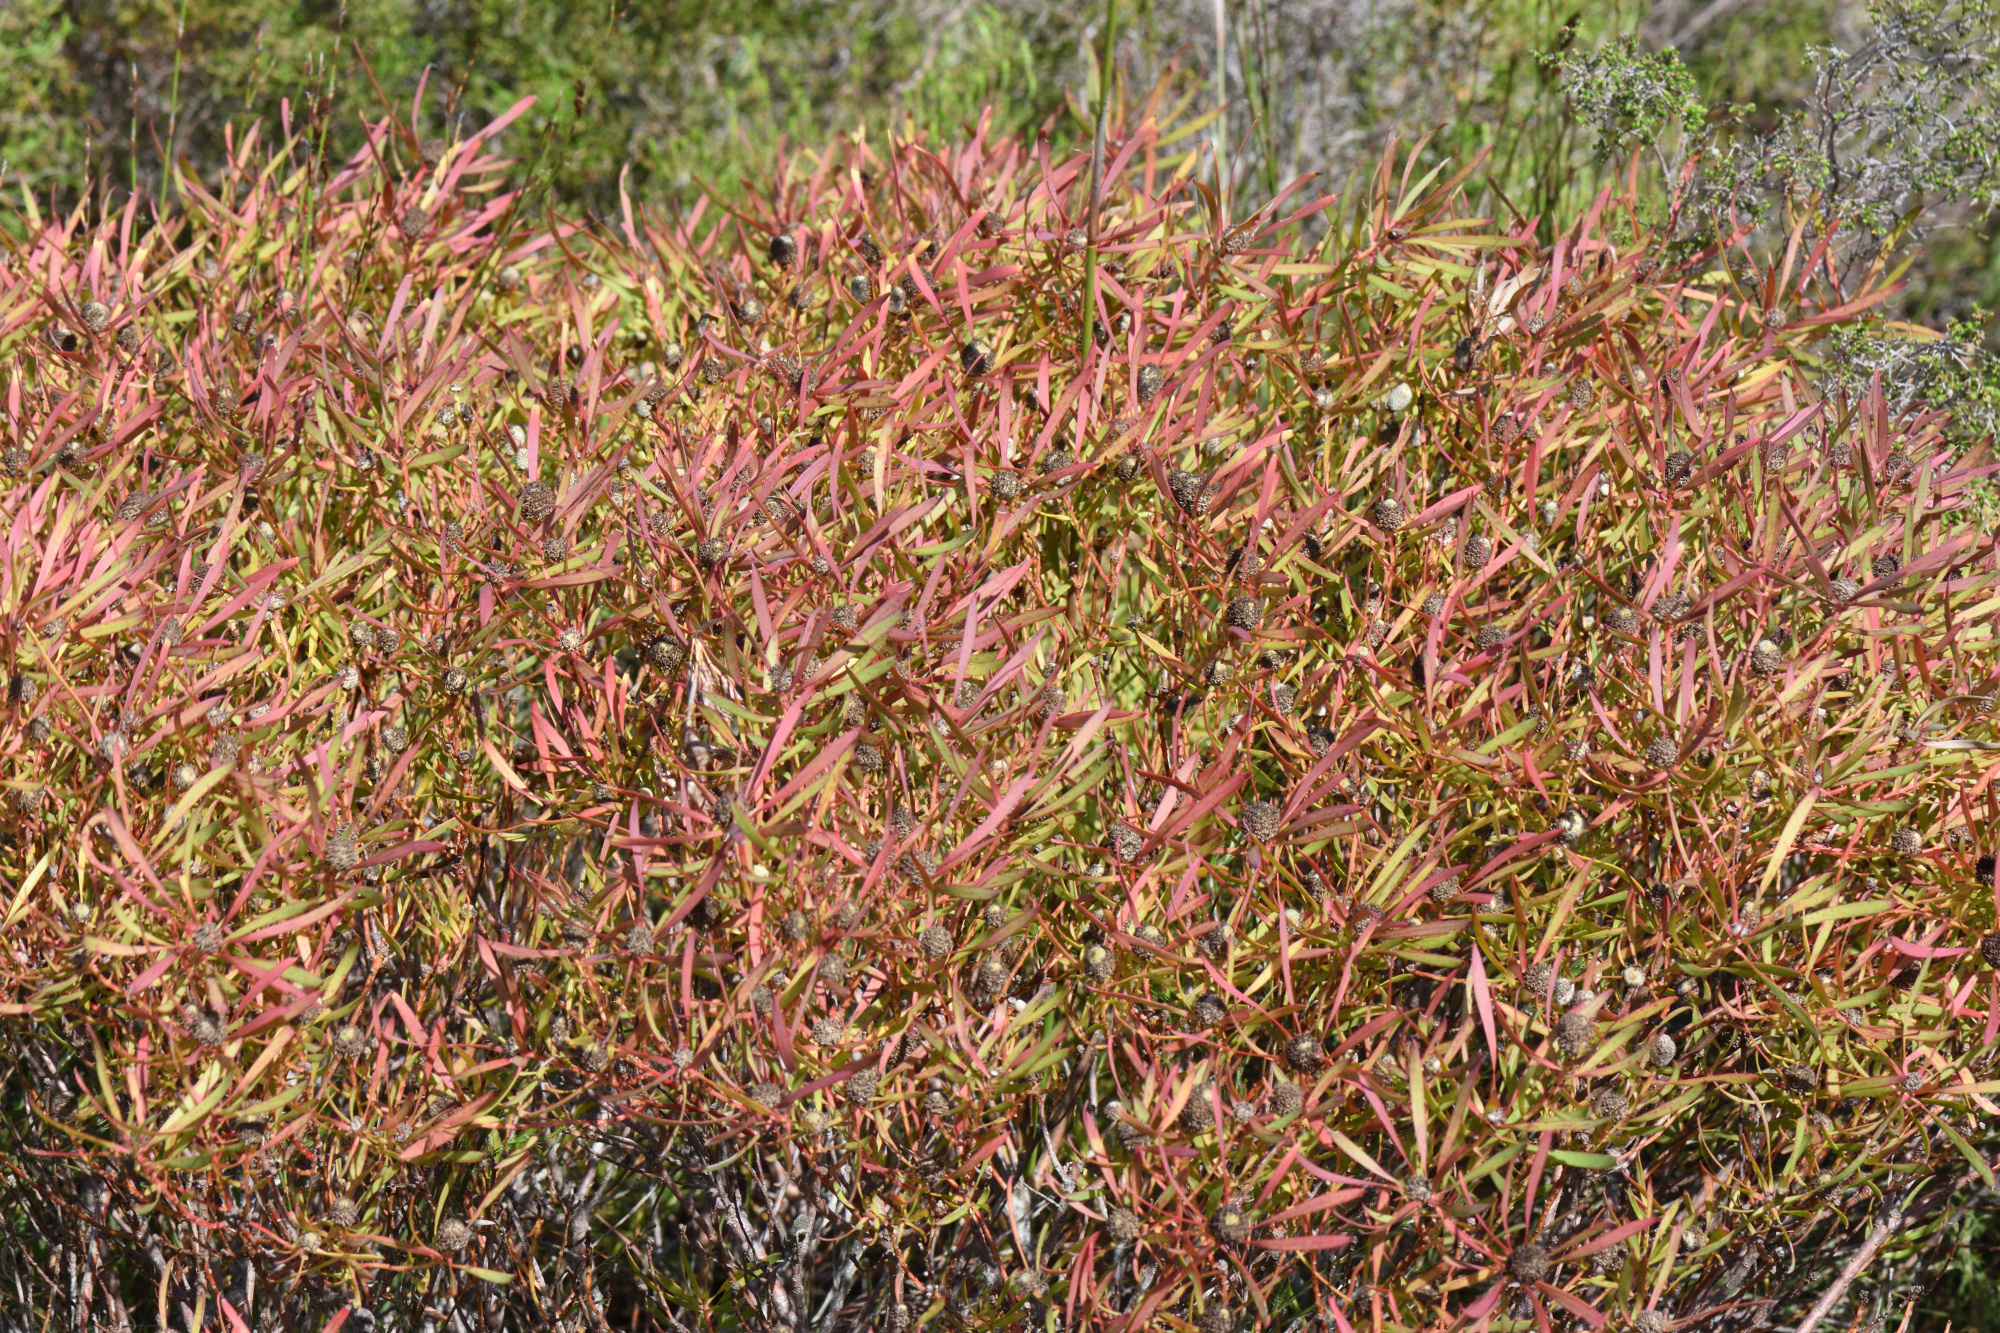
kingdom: Plantae
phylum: Tracheophyta
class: Magnoliopsida
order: Proteales
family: Proteaceae
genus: Leucadendron
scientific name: Leucadendron salignum
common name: Common sunshine conebush
